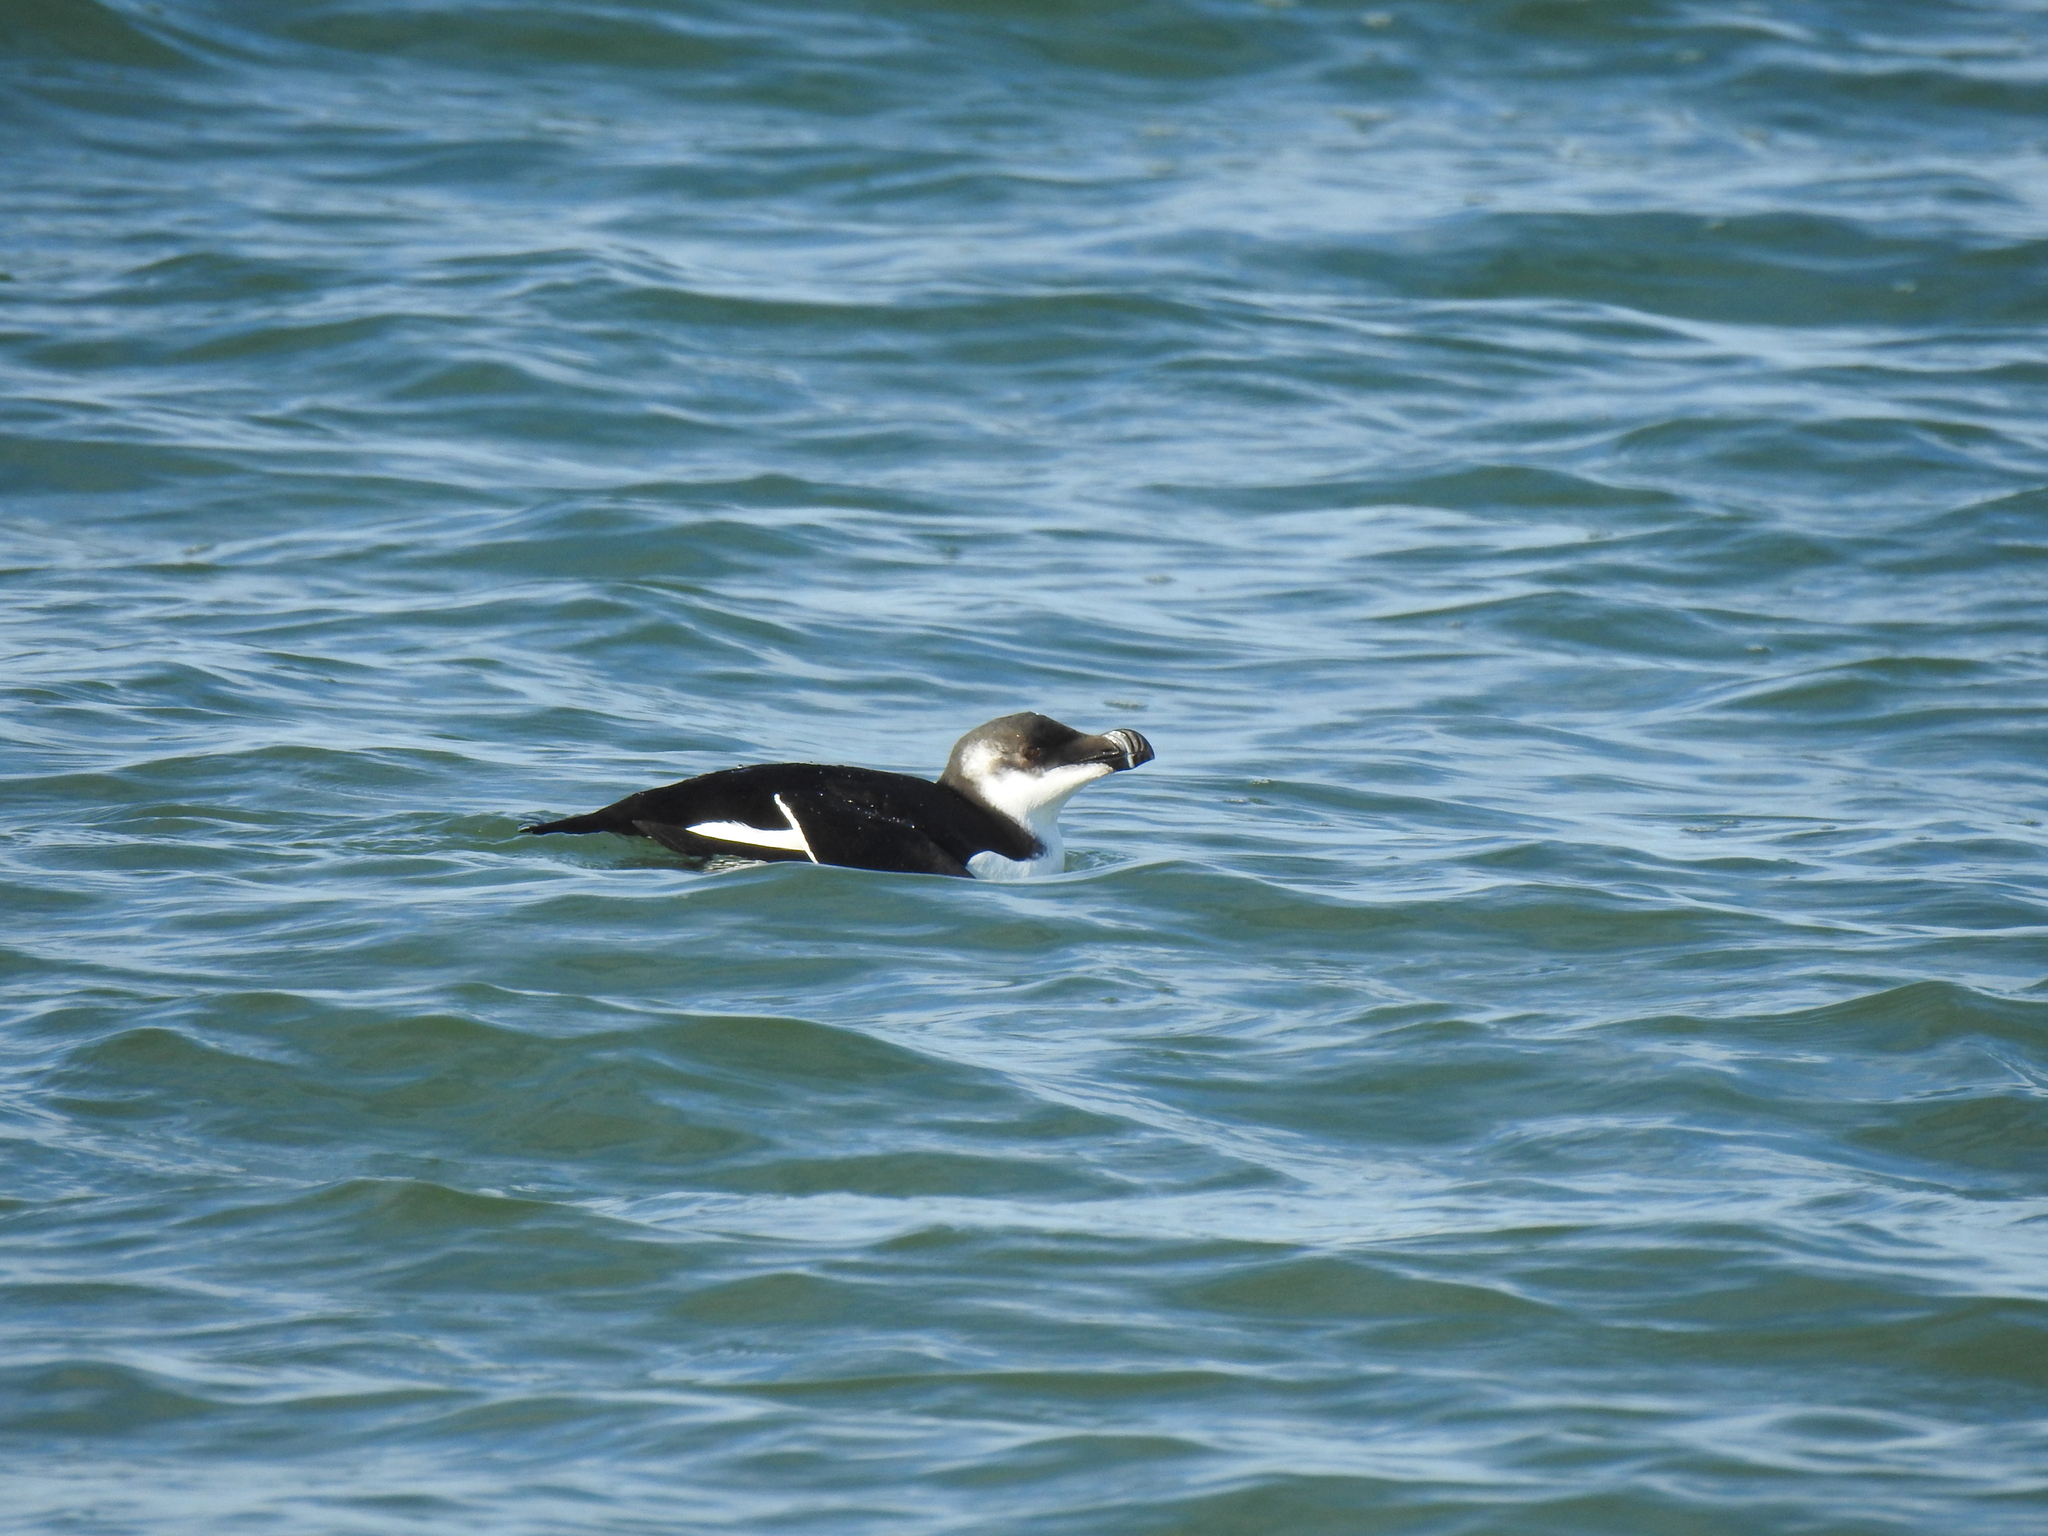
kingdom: Animalia
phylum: Chordata
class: Aves
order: Charadriiformes
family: Alcidae
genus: Alca
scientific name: Alca torda
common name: Razorbill
